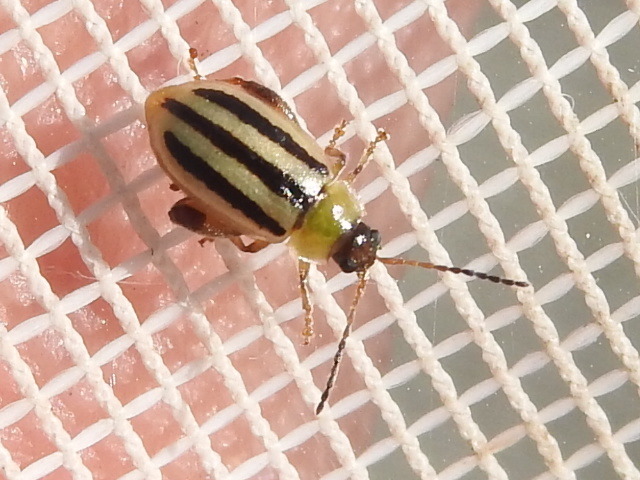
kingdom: Animalia
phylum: Arthropoda
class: Insecta
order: Coleoptera
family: Chrysomelidae
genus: Capraita
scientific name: Capraita texana
